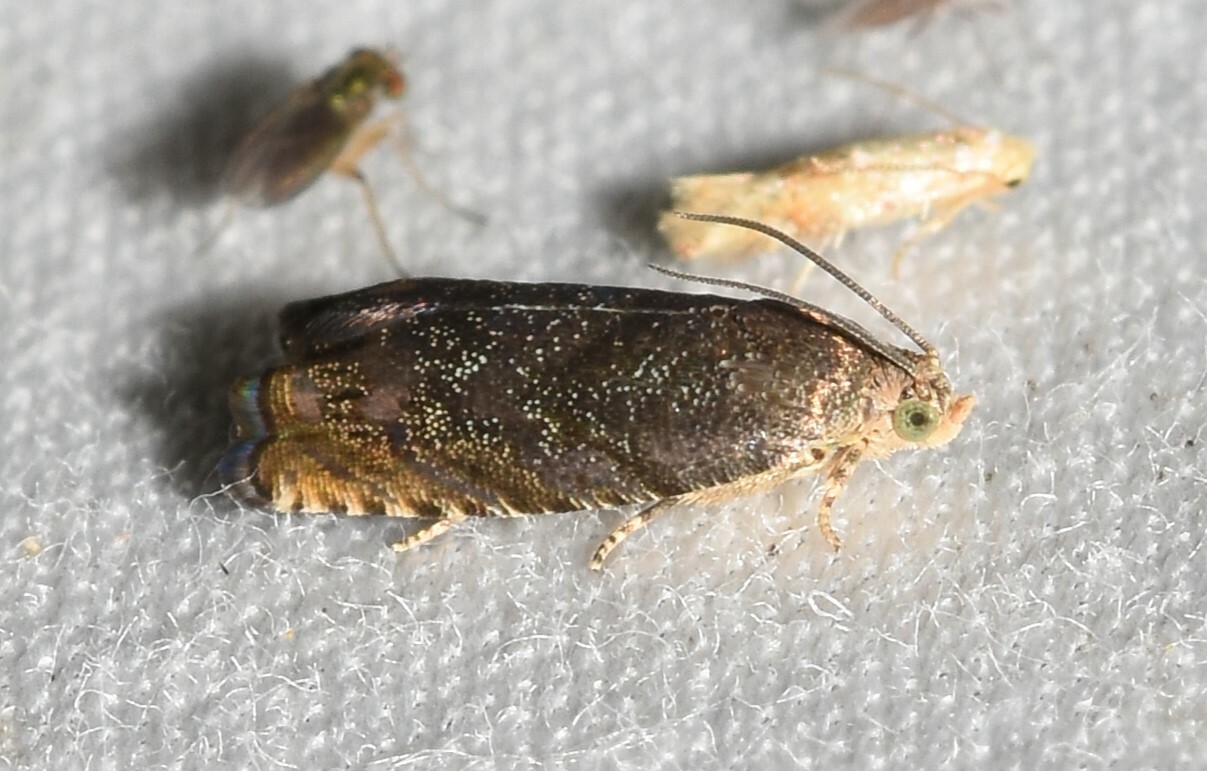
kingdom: Animalia
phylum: Arthropoda
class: Insecta
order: Lepidoptera
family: Tortricidae
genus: Cydia
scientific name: Cydia caryana
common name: Hickory shuckworm moth
